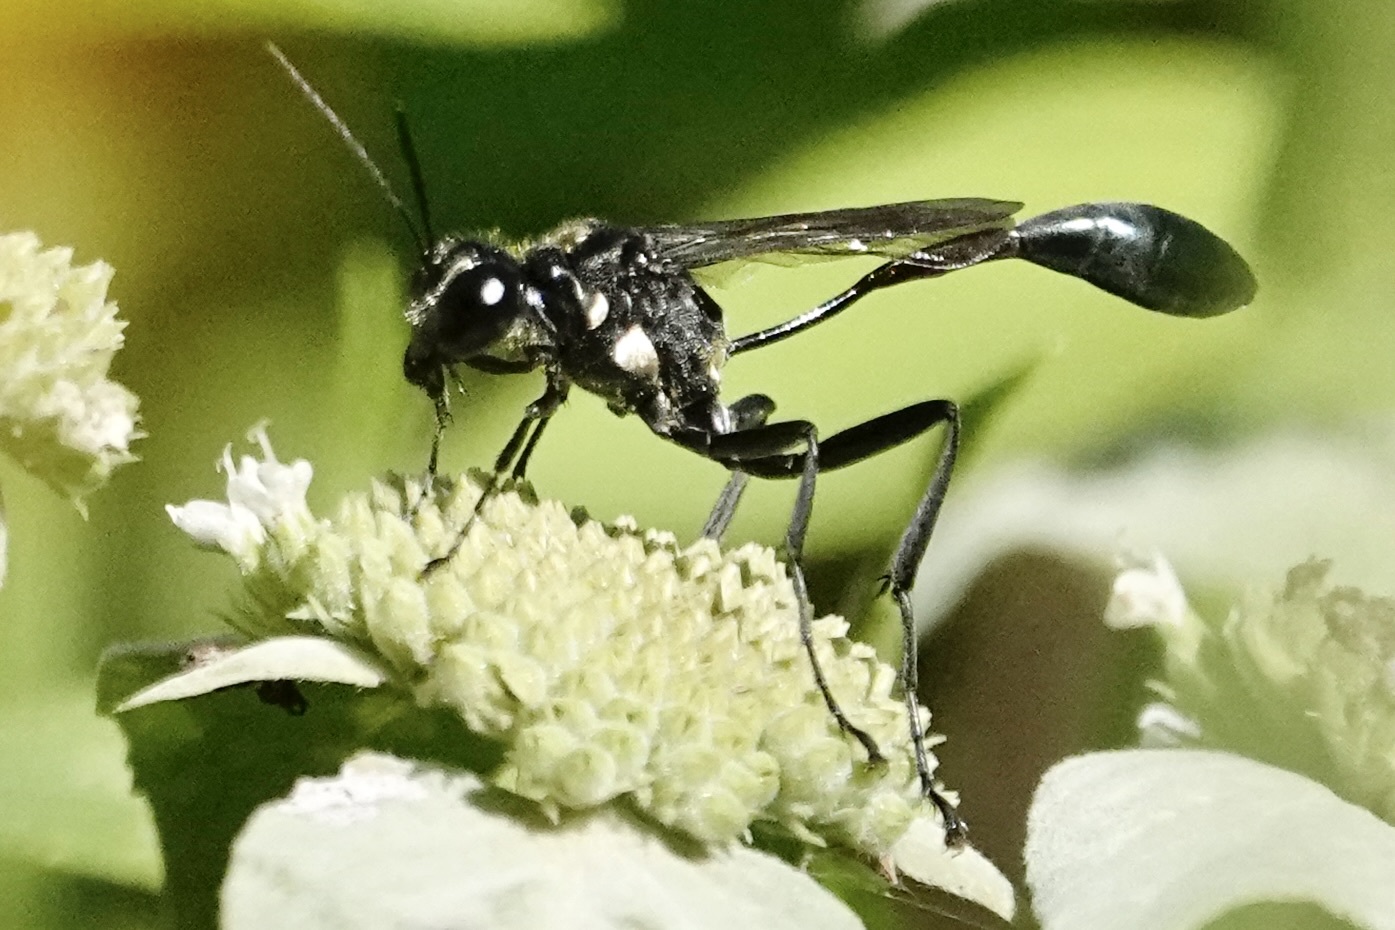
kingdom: Animalia
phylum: Arthropoda
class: Insecta
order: Hymenoptera
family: Sphecidae
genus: Eremnophila
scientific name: Eremnophila aureonotata
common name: Gold-marked thread-waisted wasp
